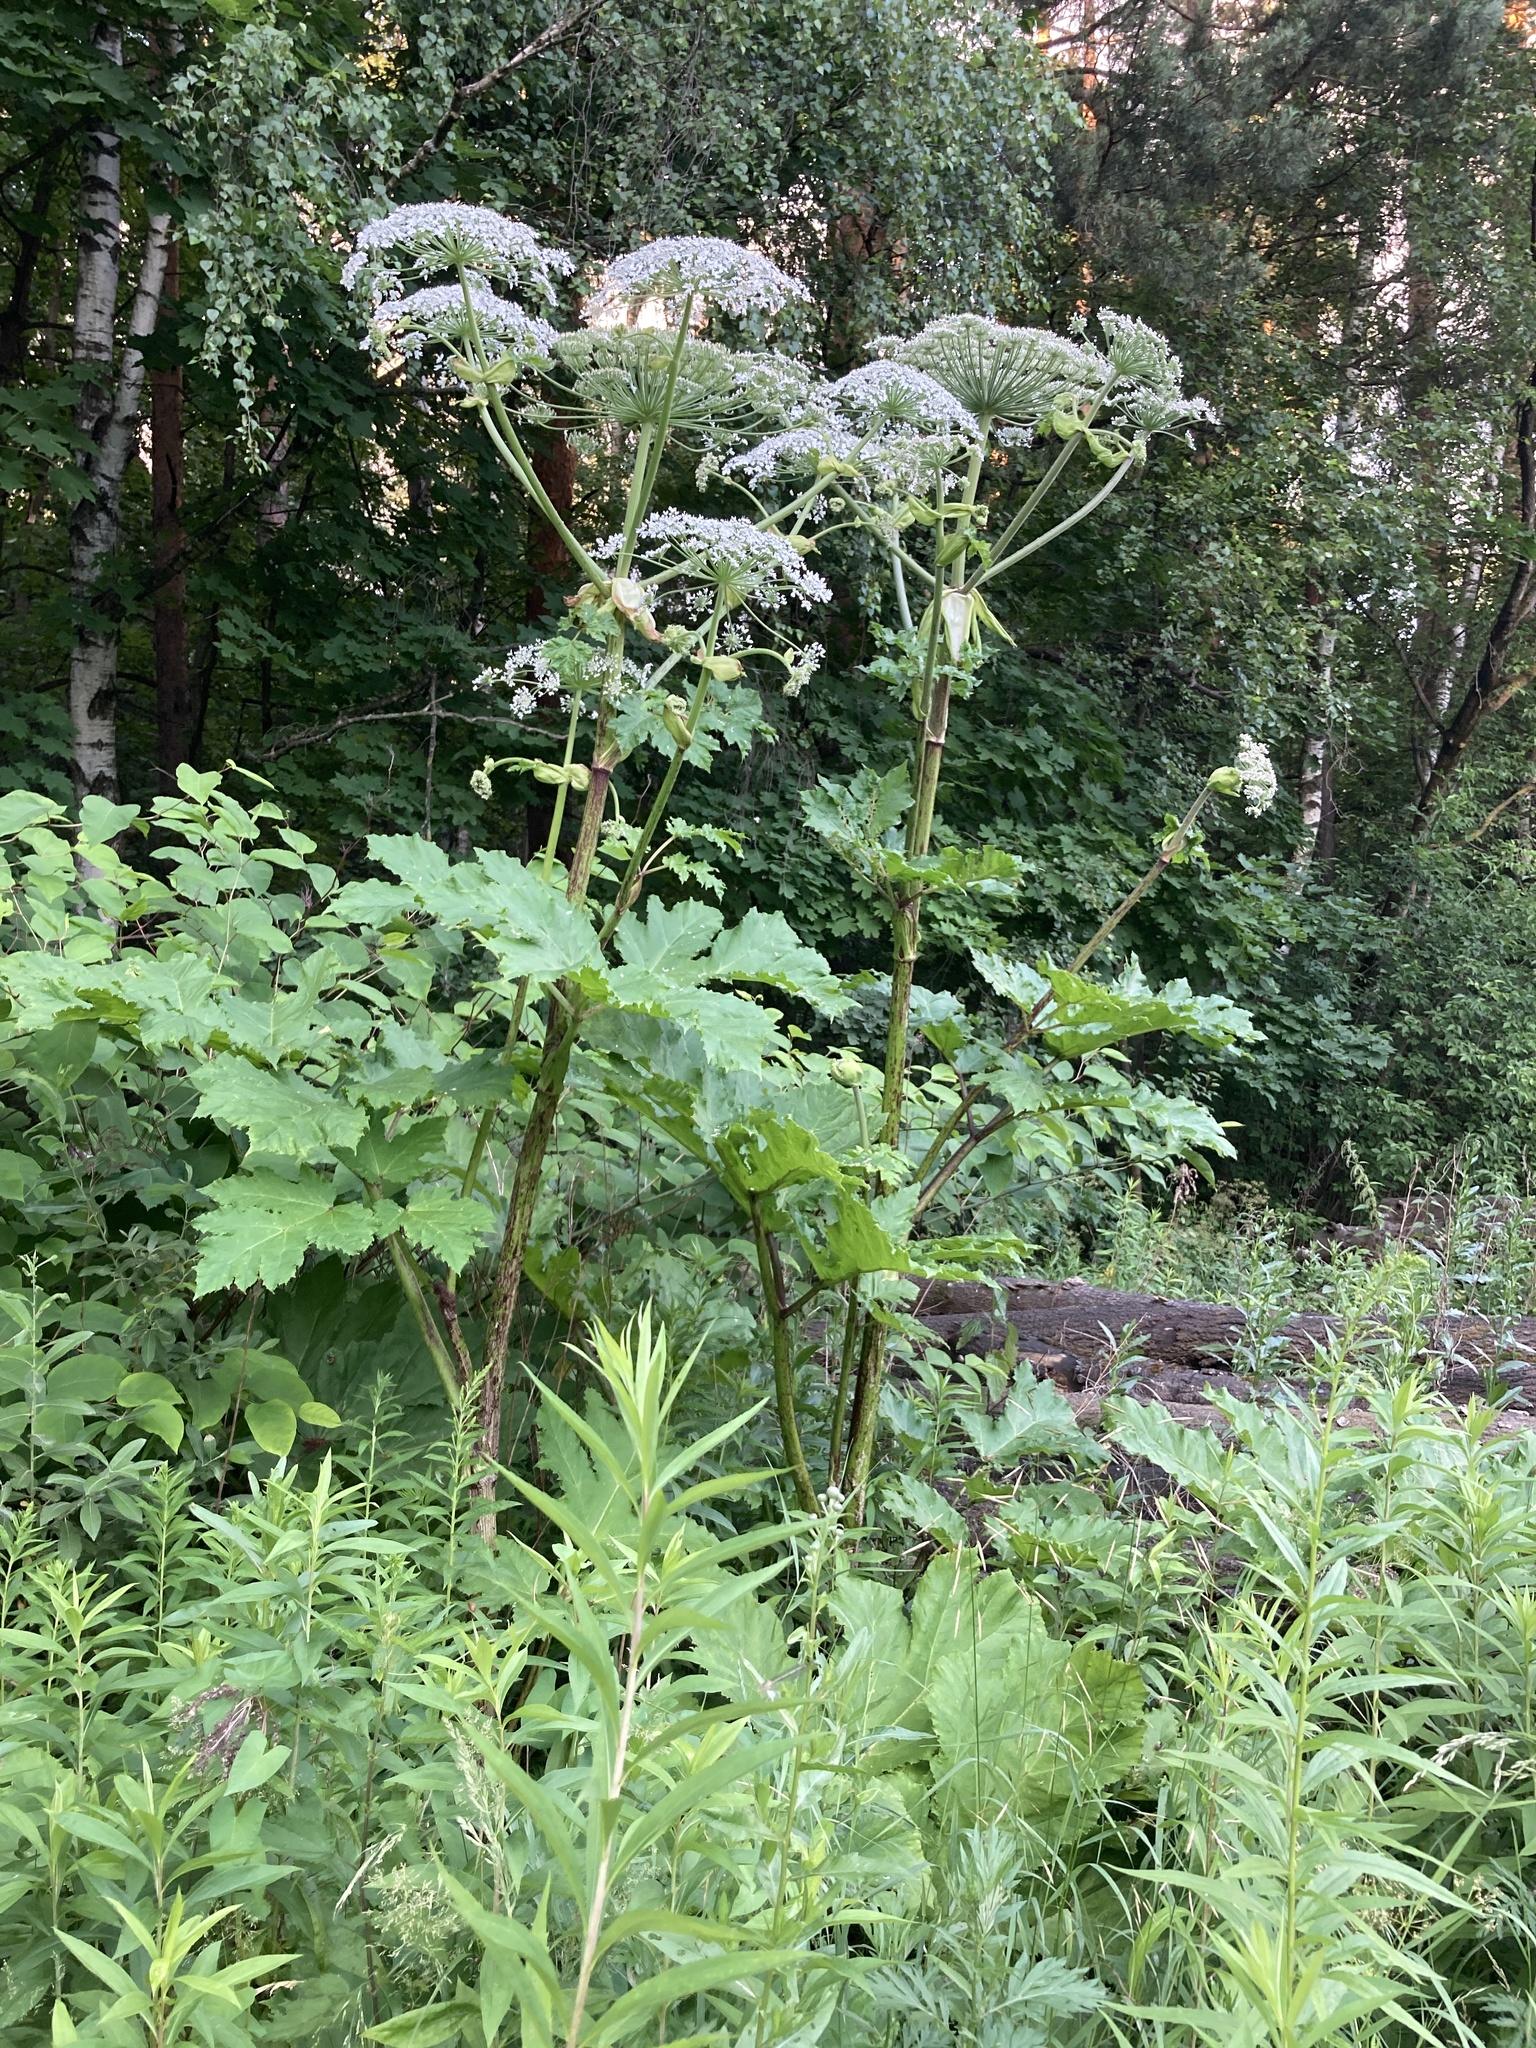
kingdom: Plantae
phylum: Tracheophyta
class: Magnoliopsida
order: Apiales
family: Apiaceae
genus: Heracleum
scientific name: Heracleum sosnowskyi
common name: Sosnowsky's hogweed
